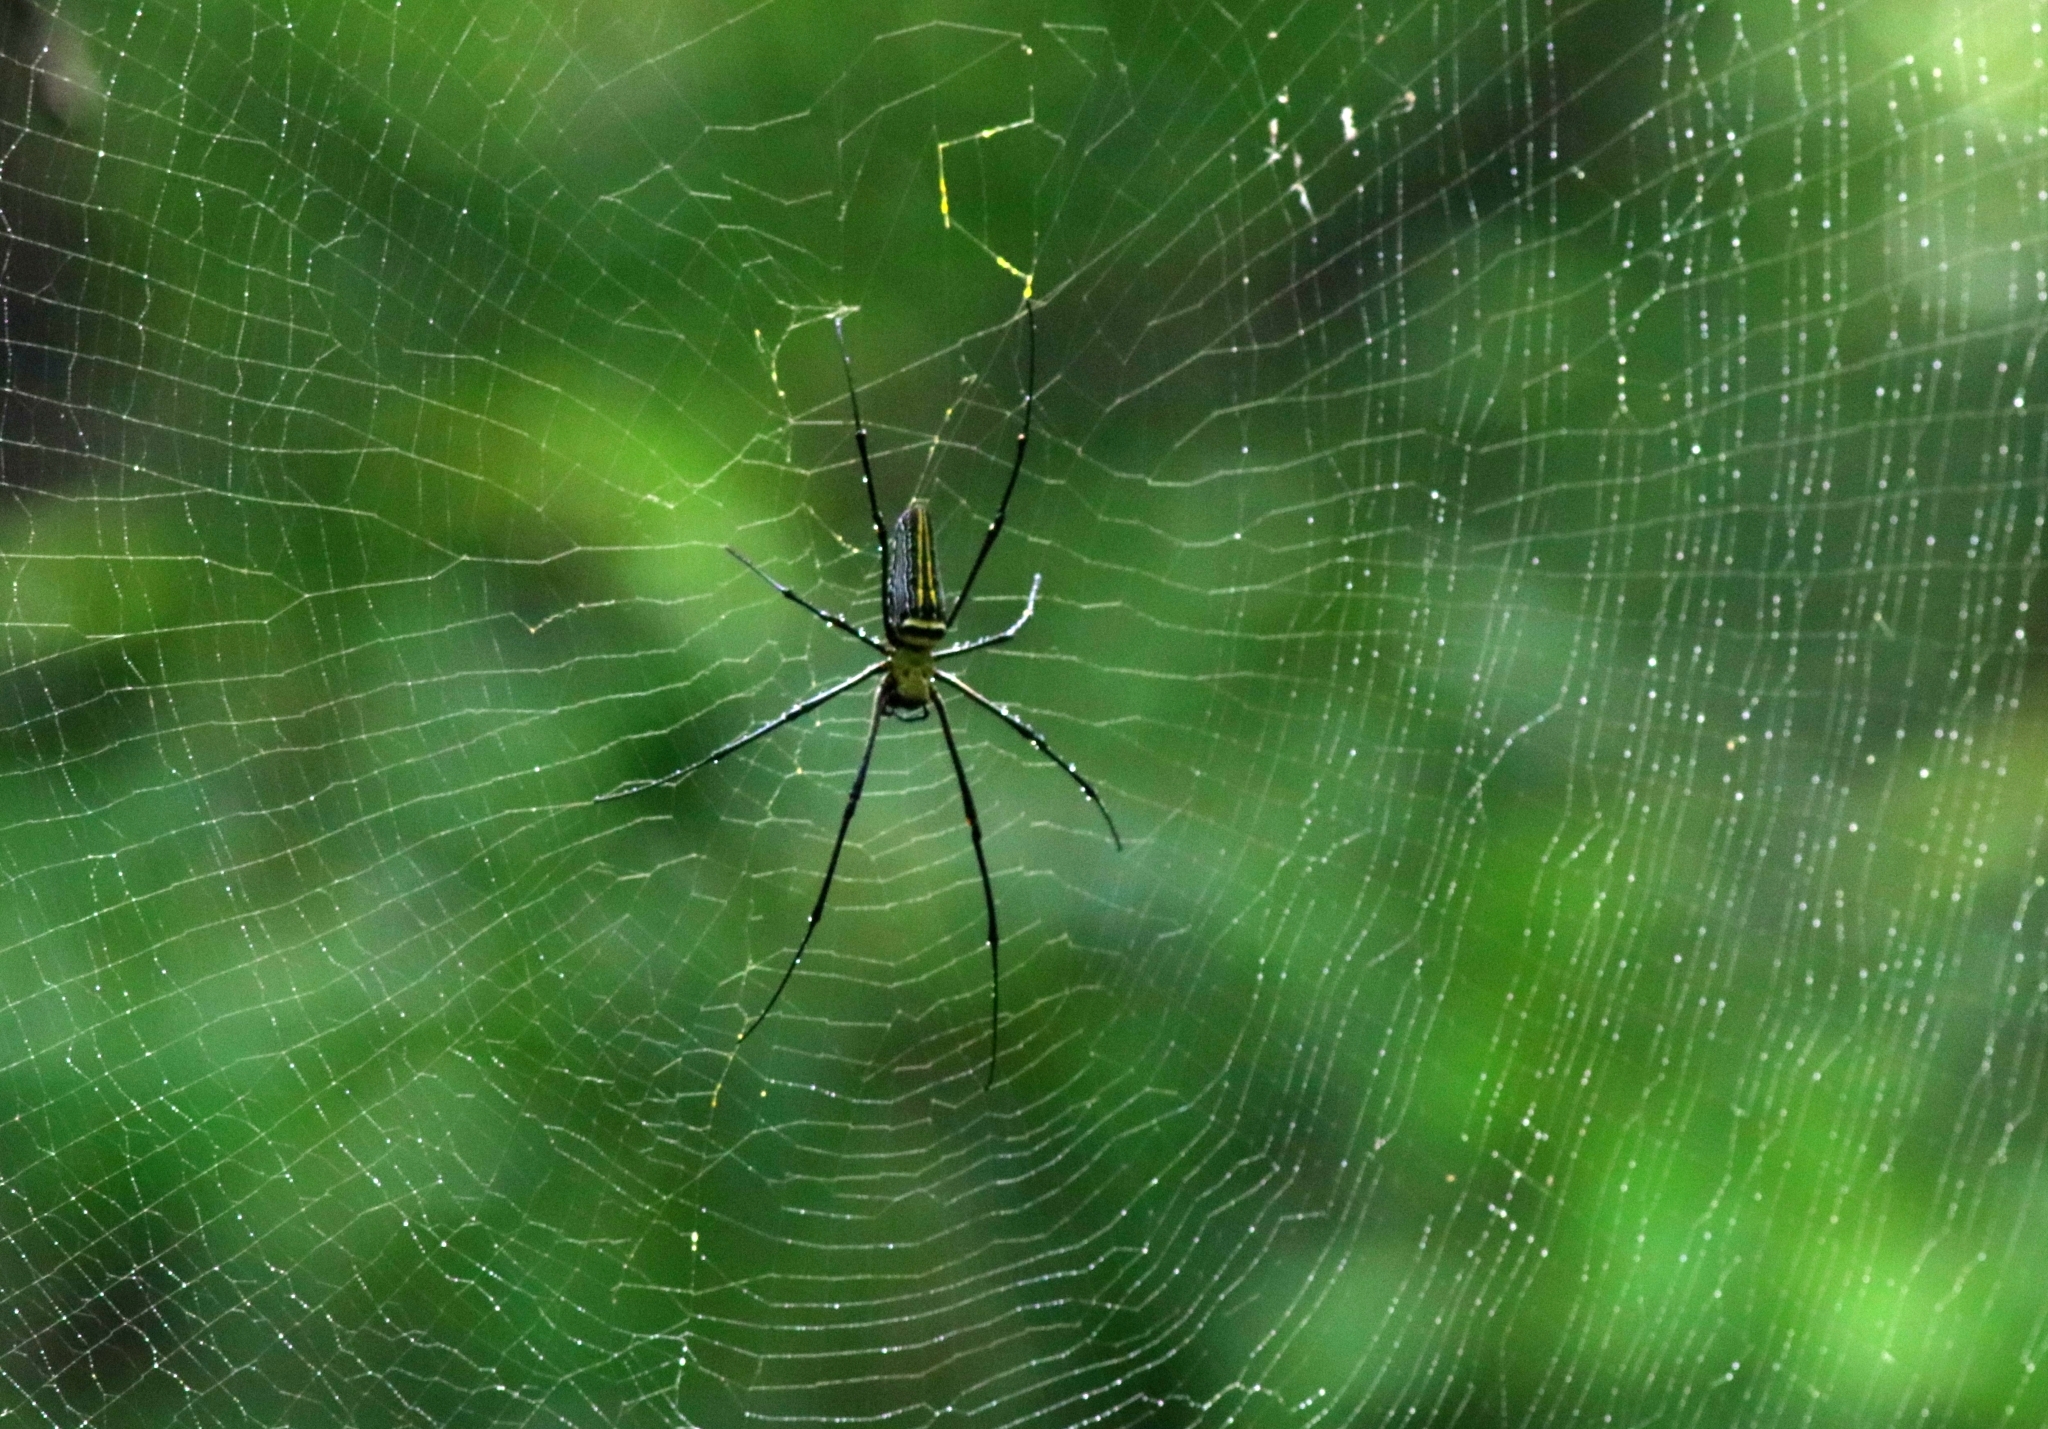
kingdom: Animalia
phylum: Arthropoda
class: Arachnida
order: Araneae
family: Araneidae
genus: Nephila
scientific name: Nephila pilipes
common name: Giant golden orb weaver
